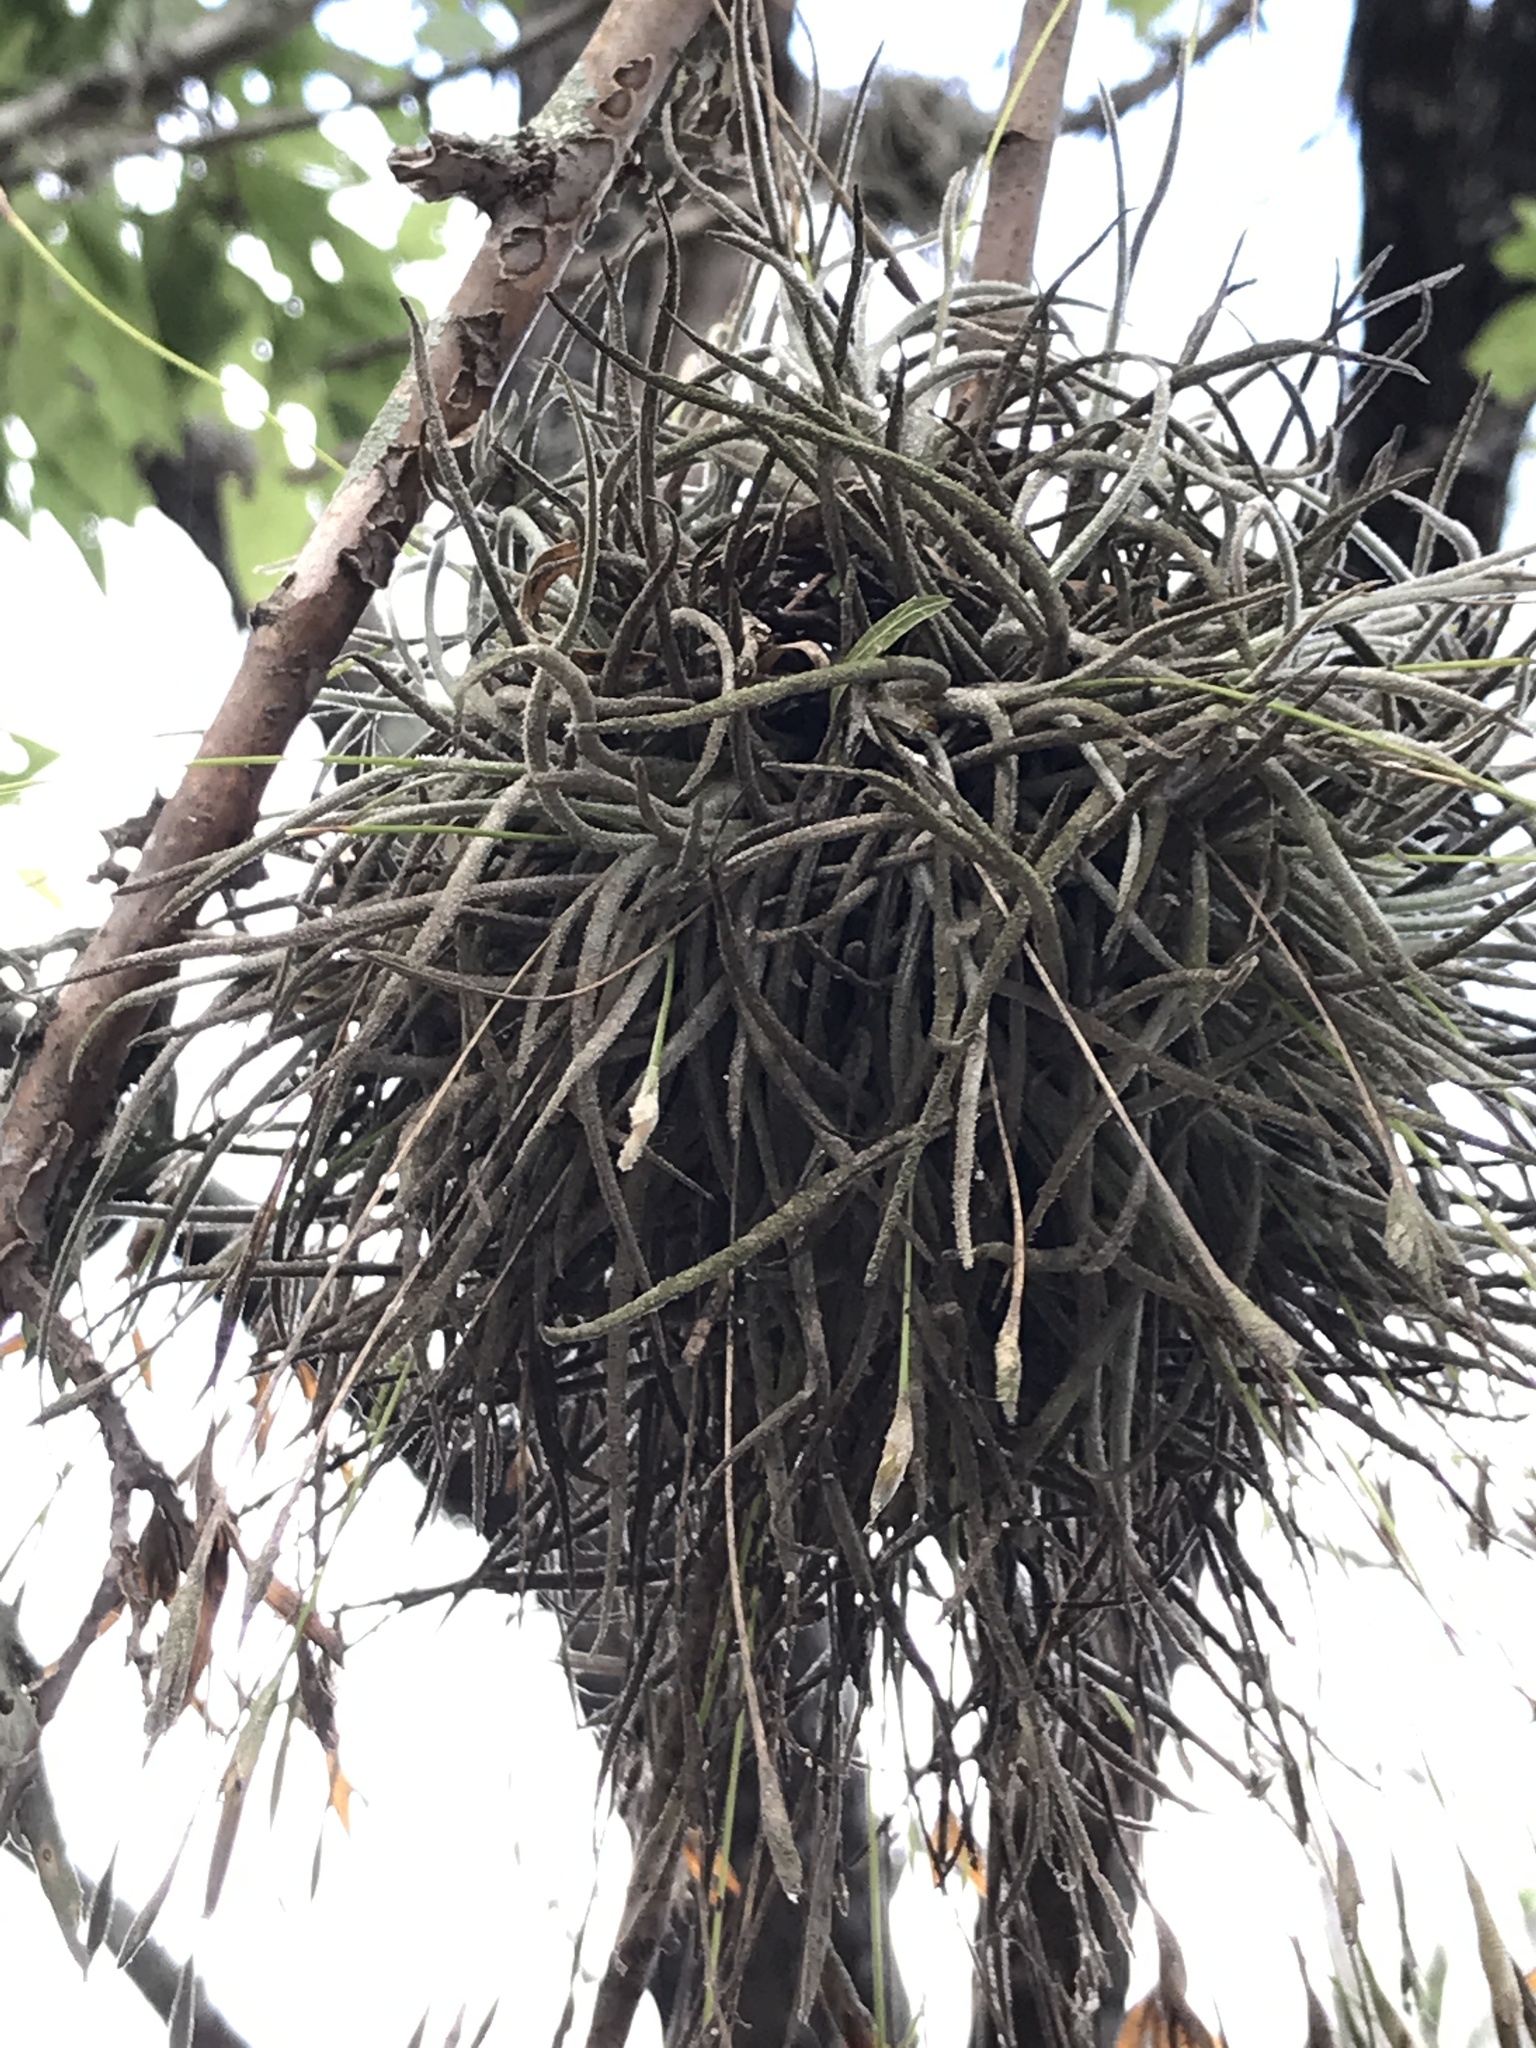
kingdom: Plantae
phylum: Tracheophyta
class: Liliopsida
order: Poales
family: Bromeliaceae
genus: Tillandsia
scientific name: Tillandsia recurvata
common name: Small ballmoss
